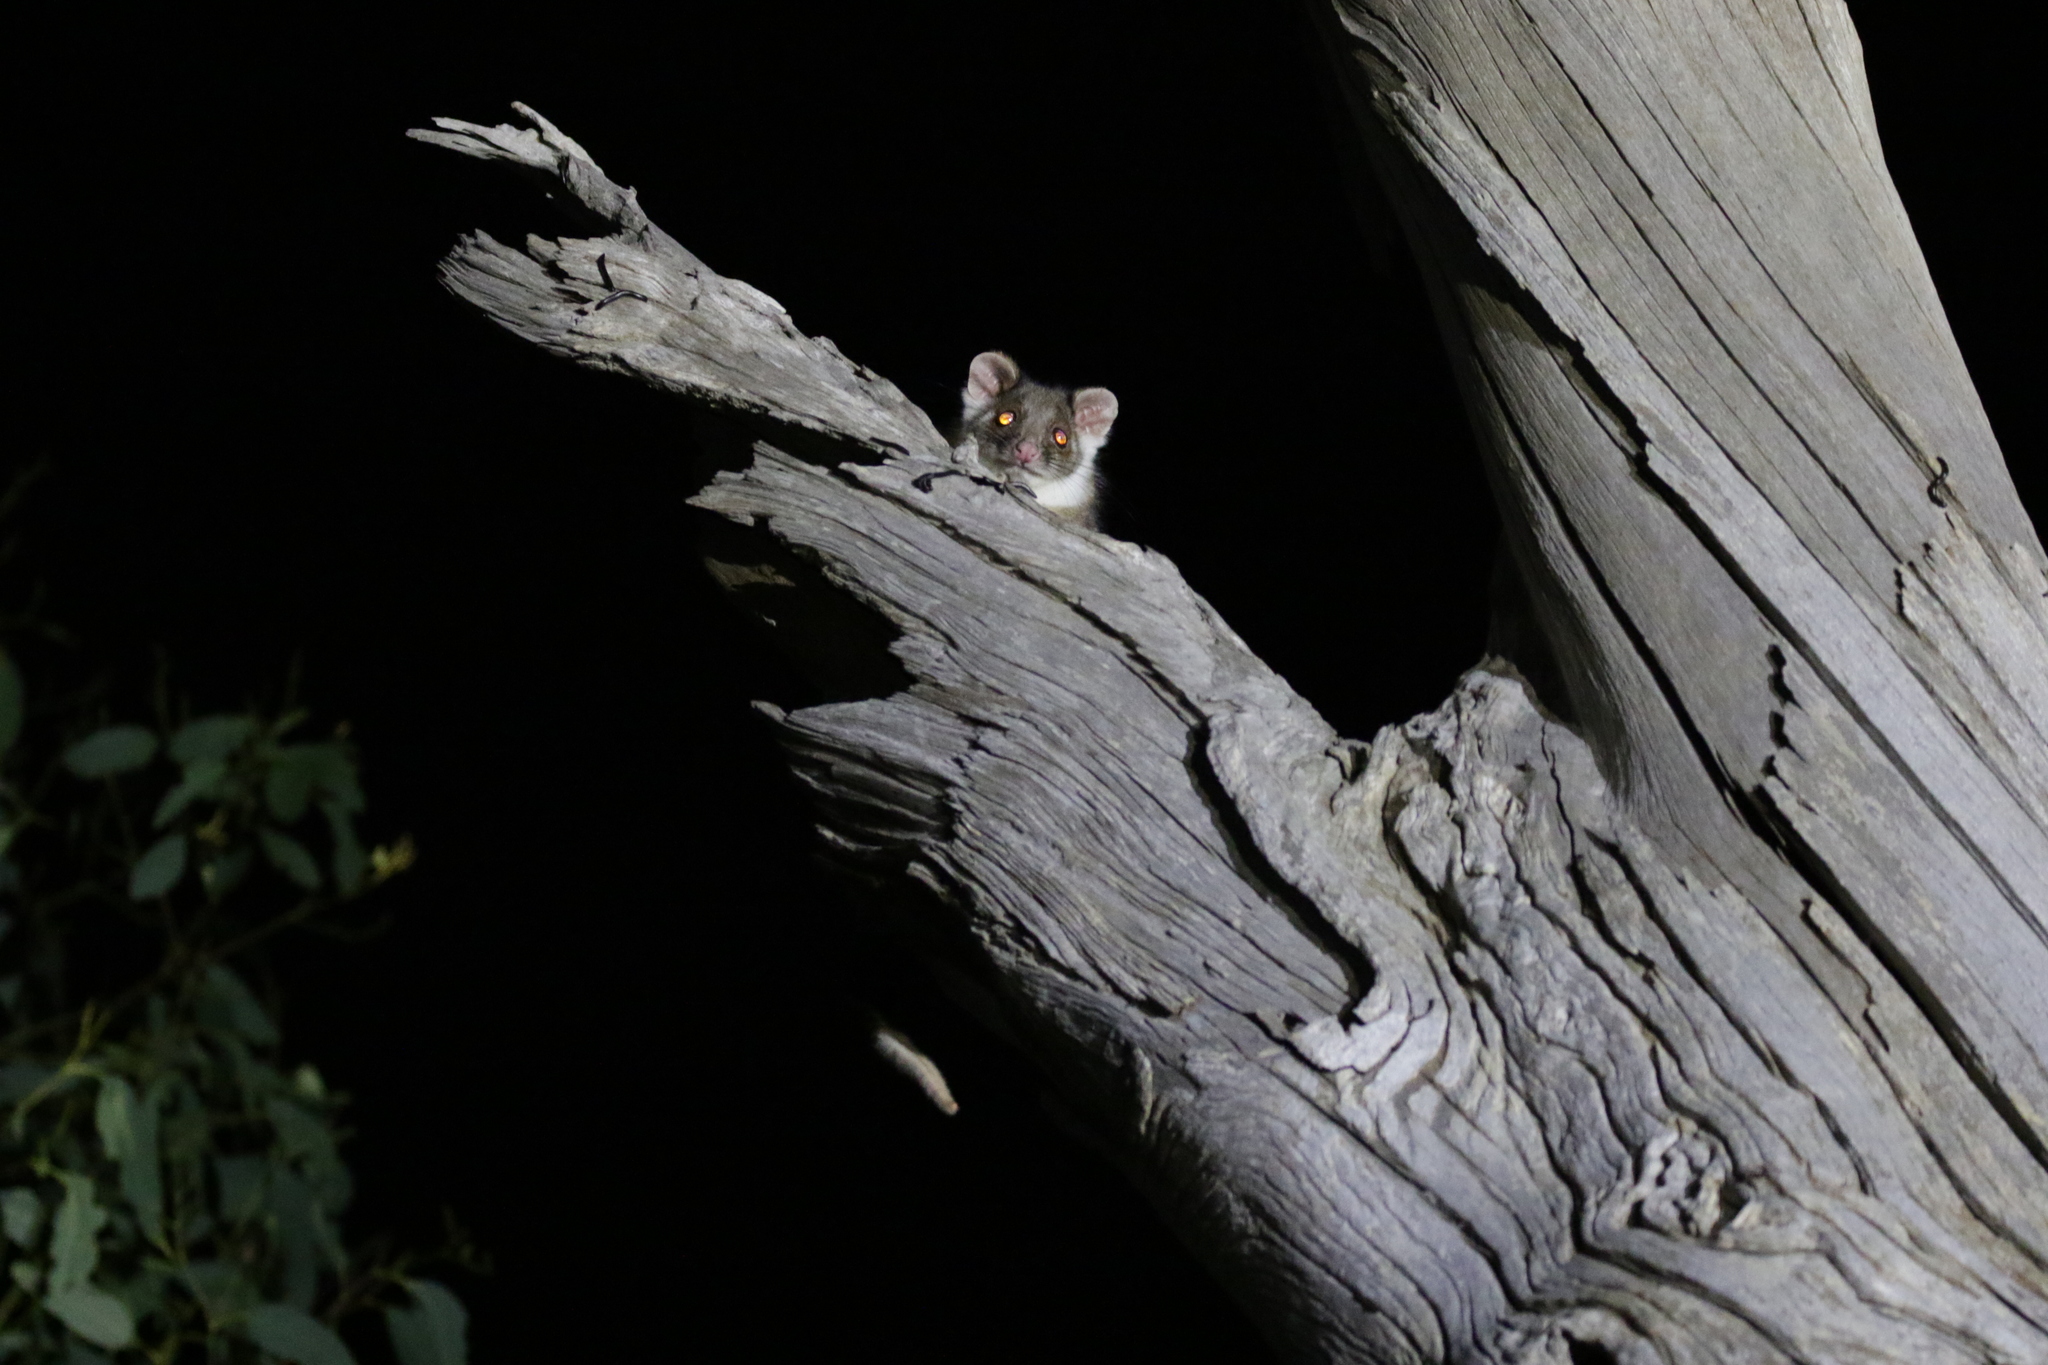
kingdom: Animalia
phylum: Chordata
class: Mammalia
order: Diprotodontia
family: Pseudocheiridae
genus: Pseudocheirus
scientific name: Pseudocheirus peregrinus
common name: Common ringtail possum
